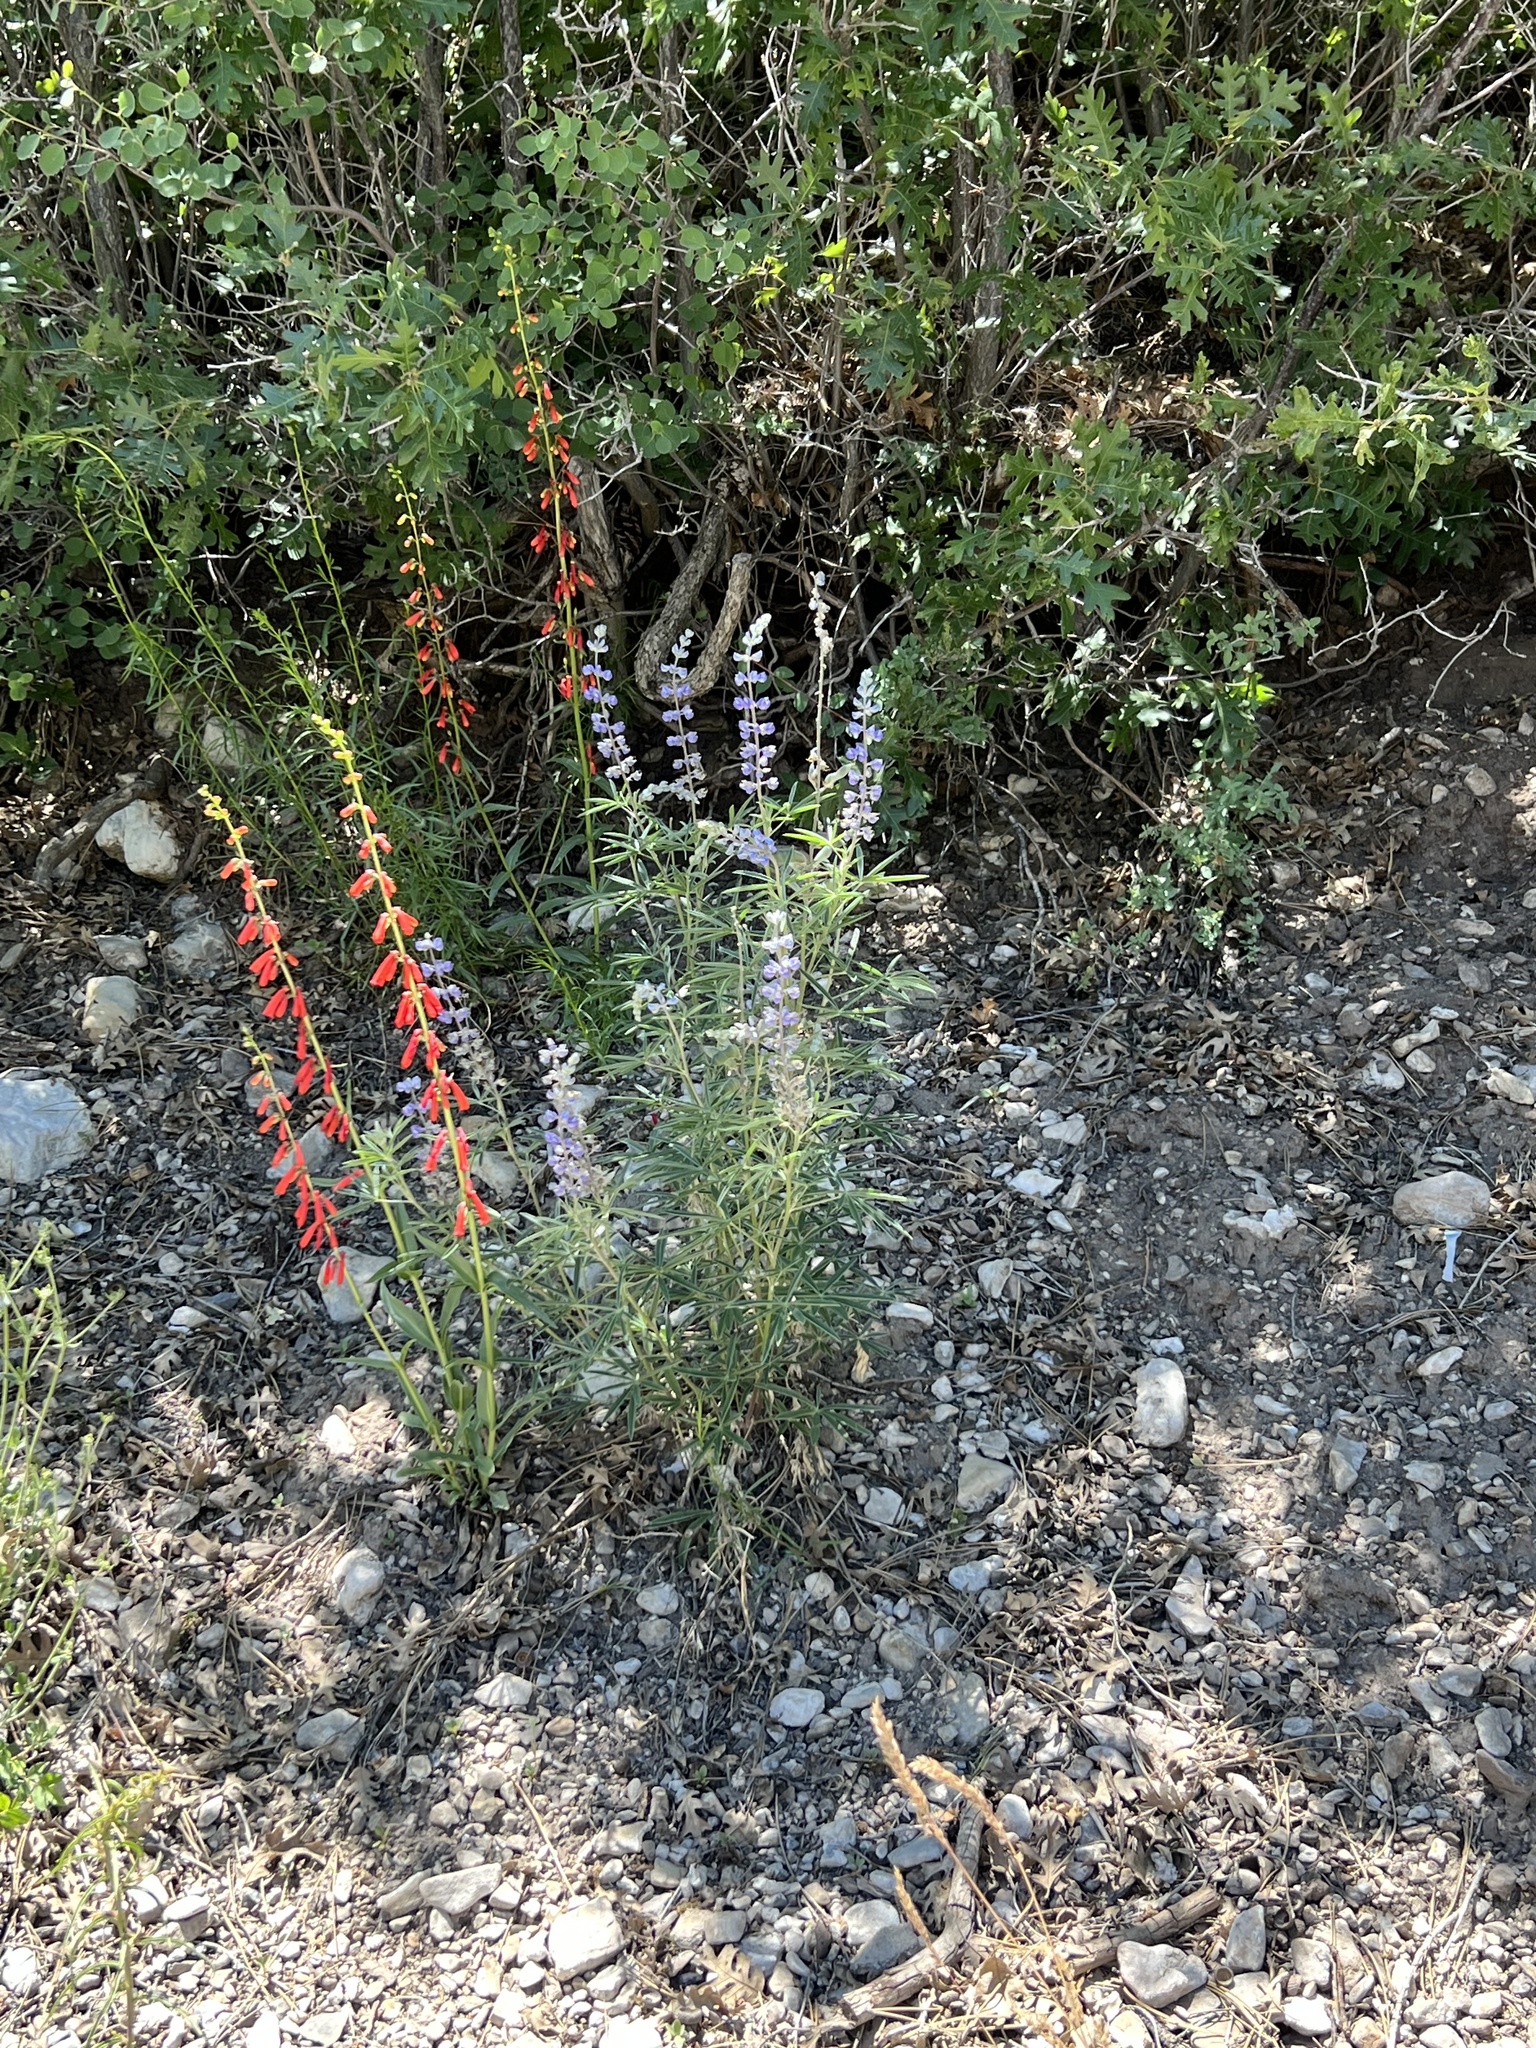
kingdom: Plantae
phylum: Tracheophyta
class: Magnoliopsida
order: Lamiales
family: Plantaginaceae
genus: Penstemon
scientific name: Penstemon eatonii
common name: Eaton's penstemon
